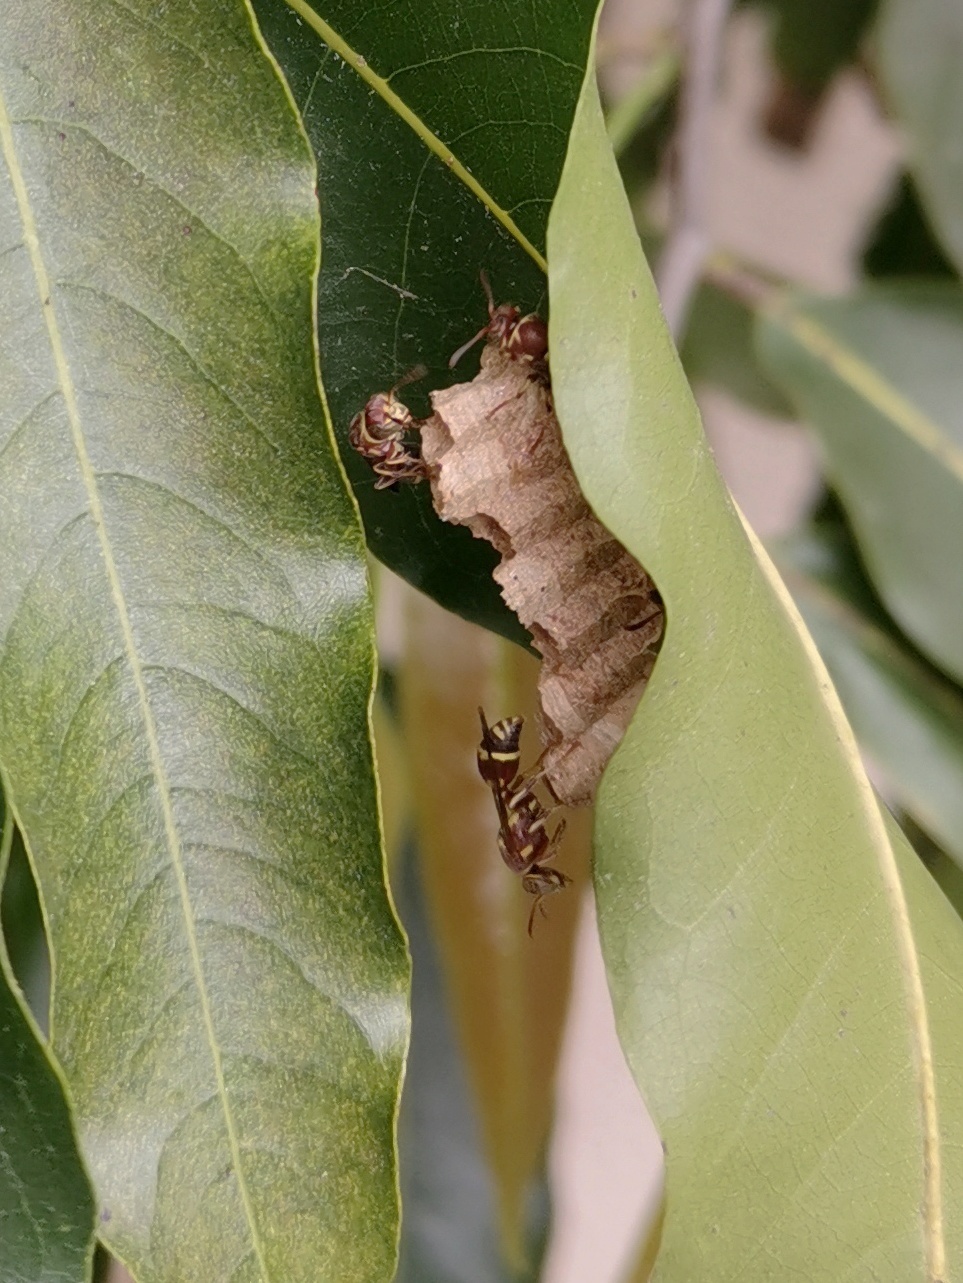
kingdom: Animalia
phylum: Arthropoda
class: Insecta
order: Hymenoptera
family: Vespidae
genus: Ropalidia
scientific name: Ropalidia cyathiformis
